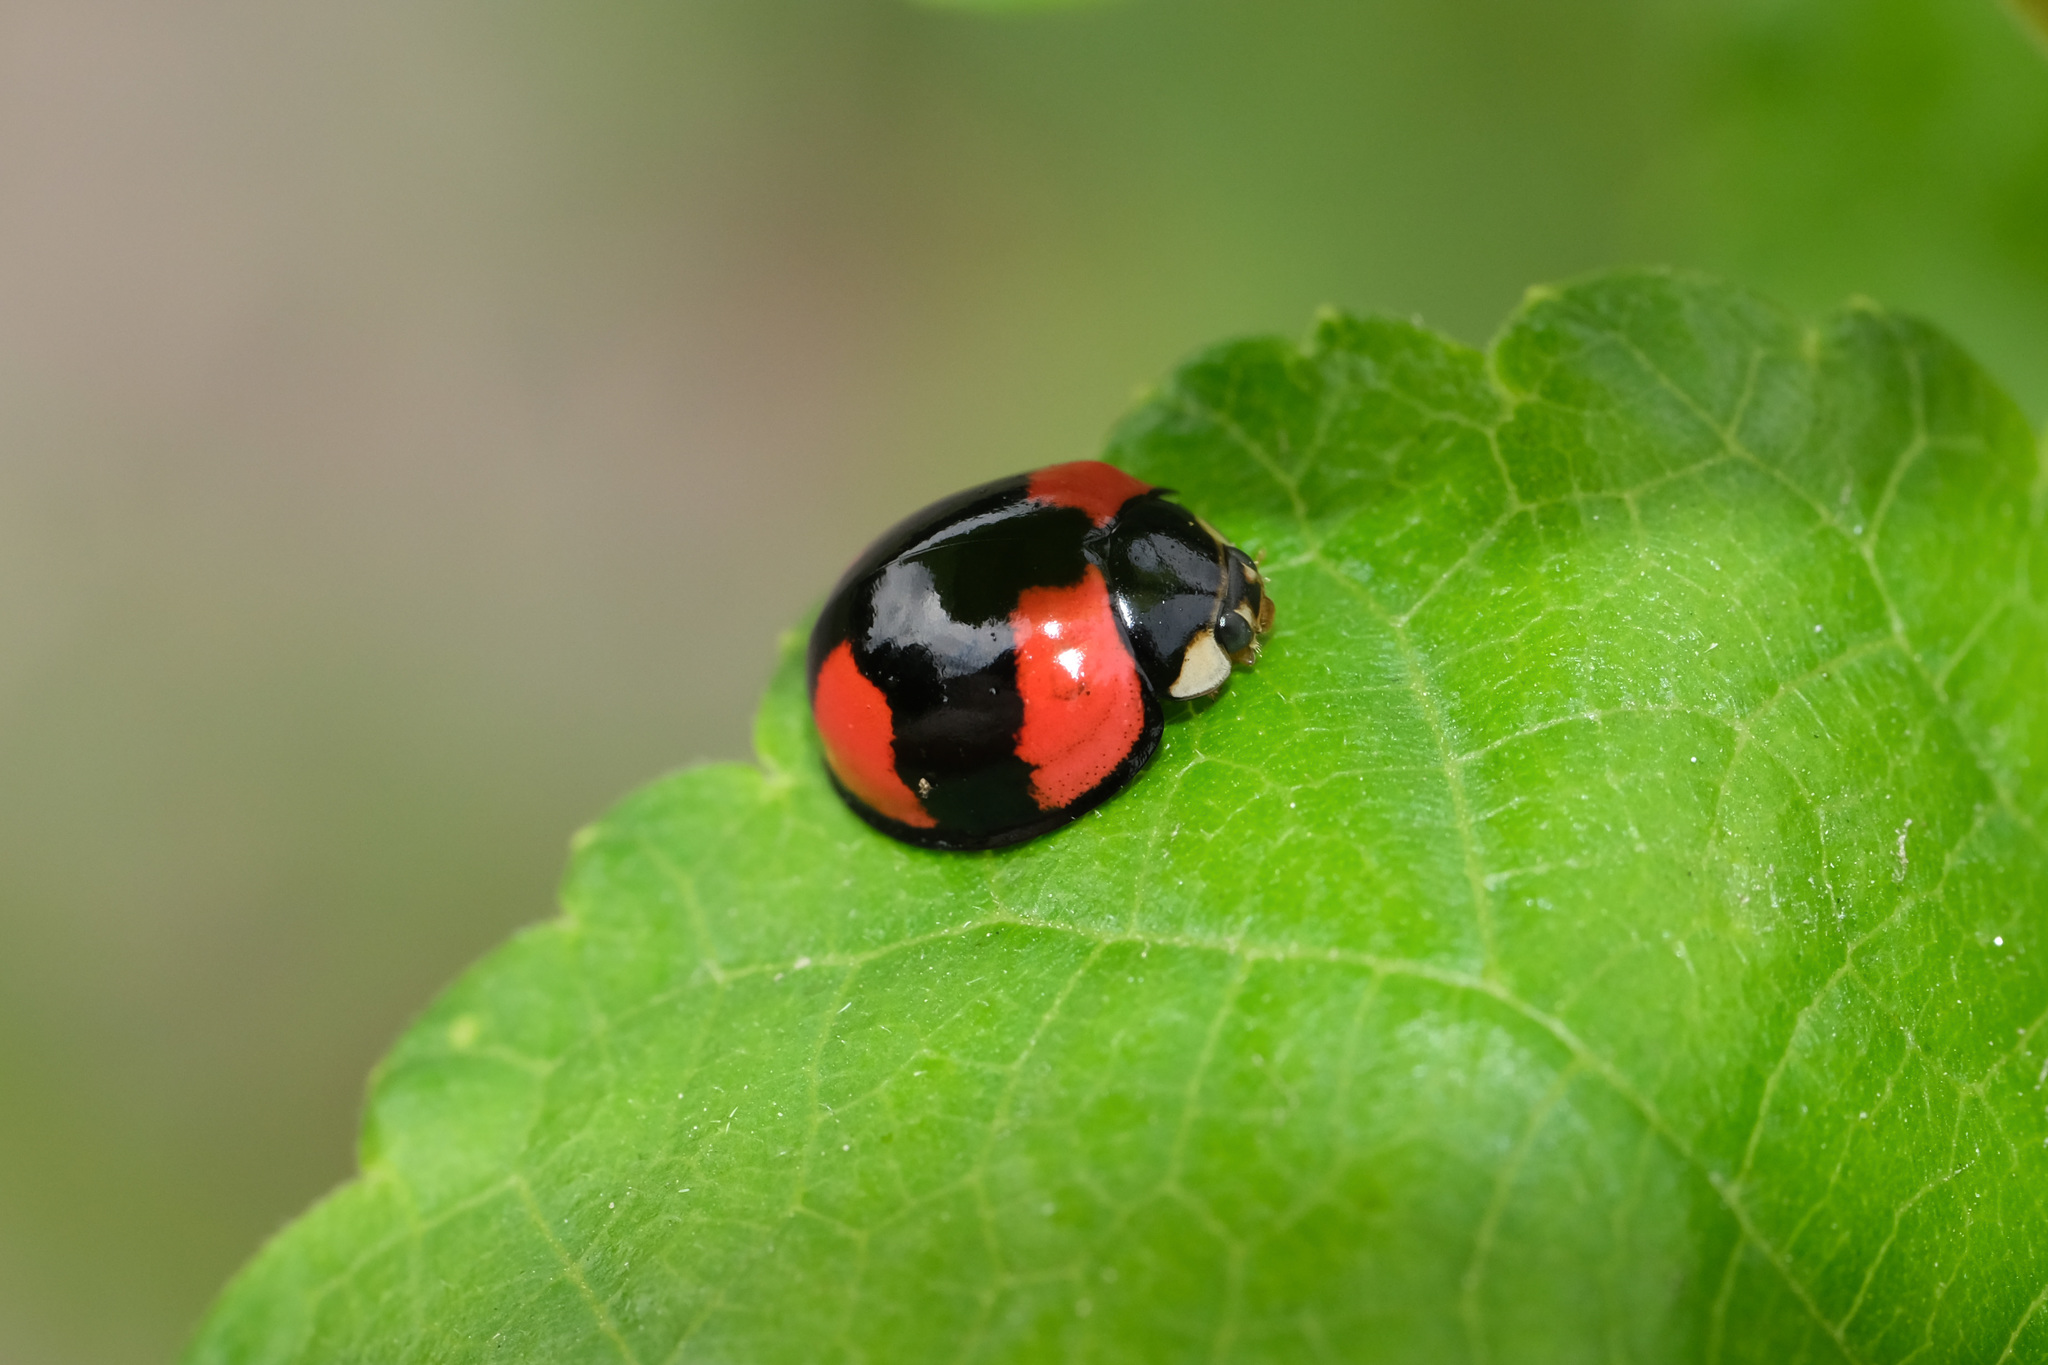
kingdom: Animalia
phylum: Arthropoda
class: Insecta
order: Coleoptera
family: Coccinellidae
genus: Cheilomenes
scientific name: Cheilomenes sexmaculata
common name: Ladybird beetle
